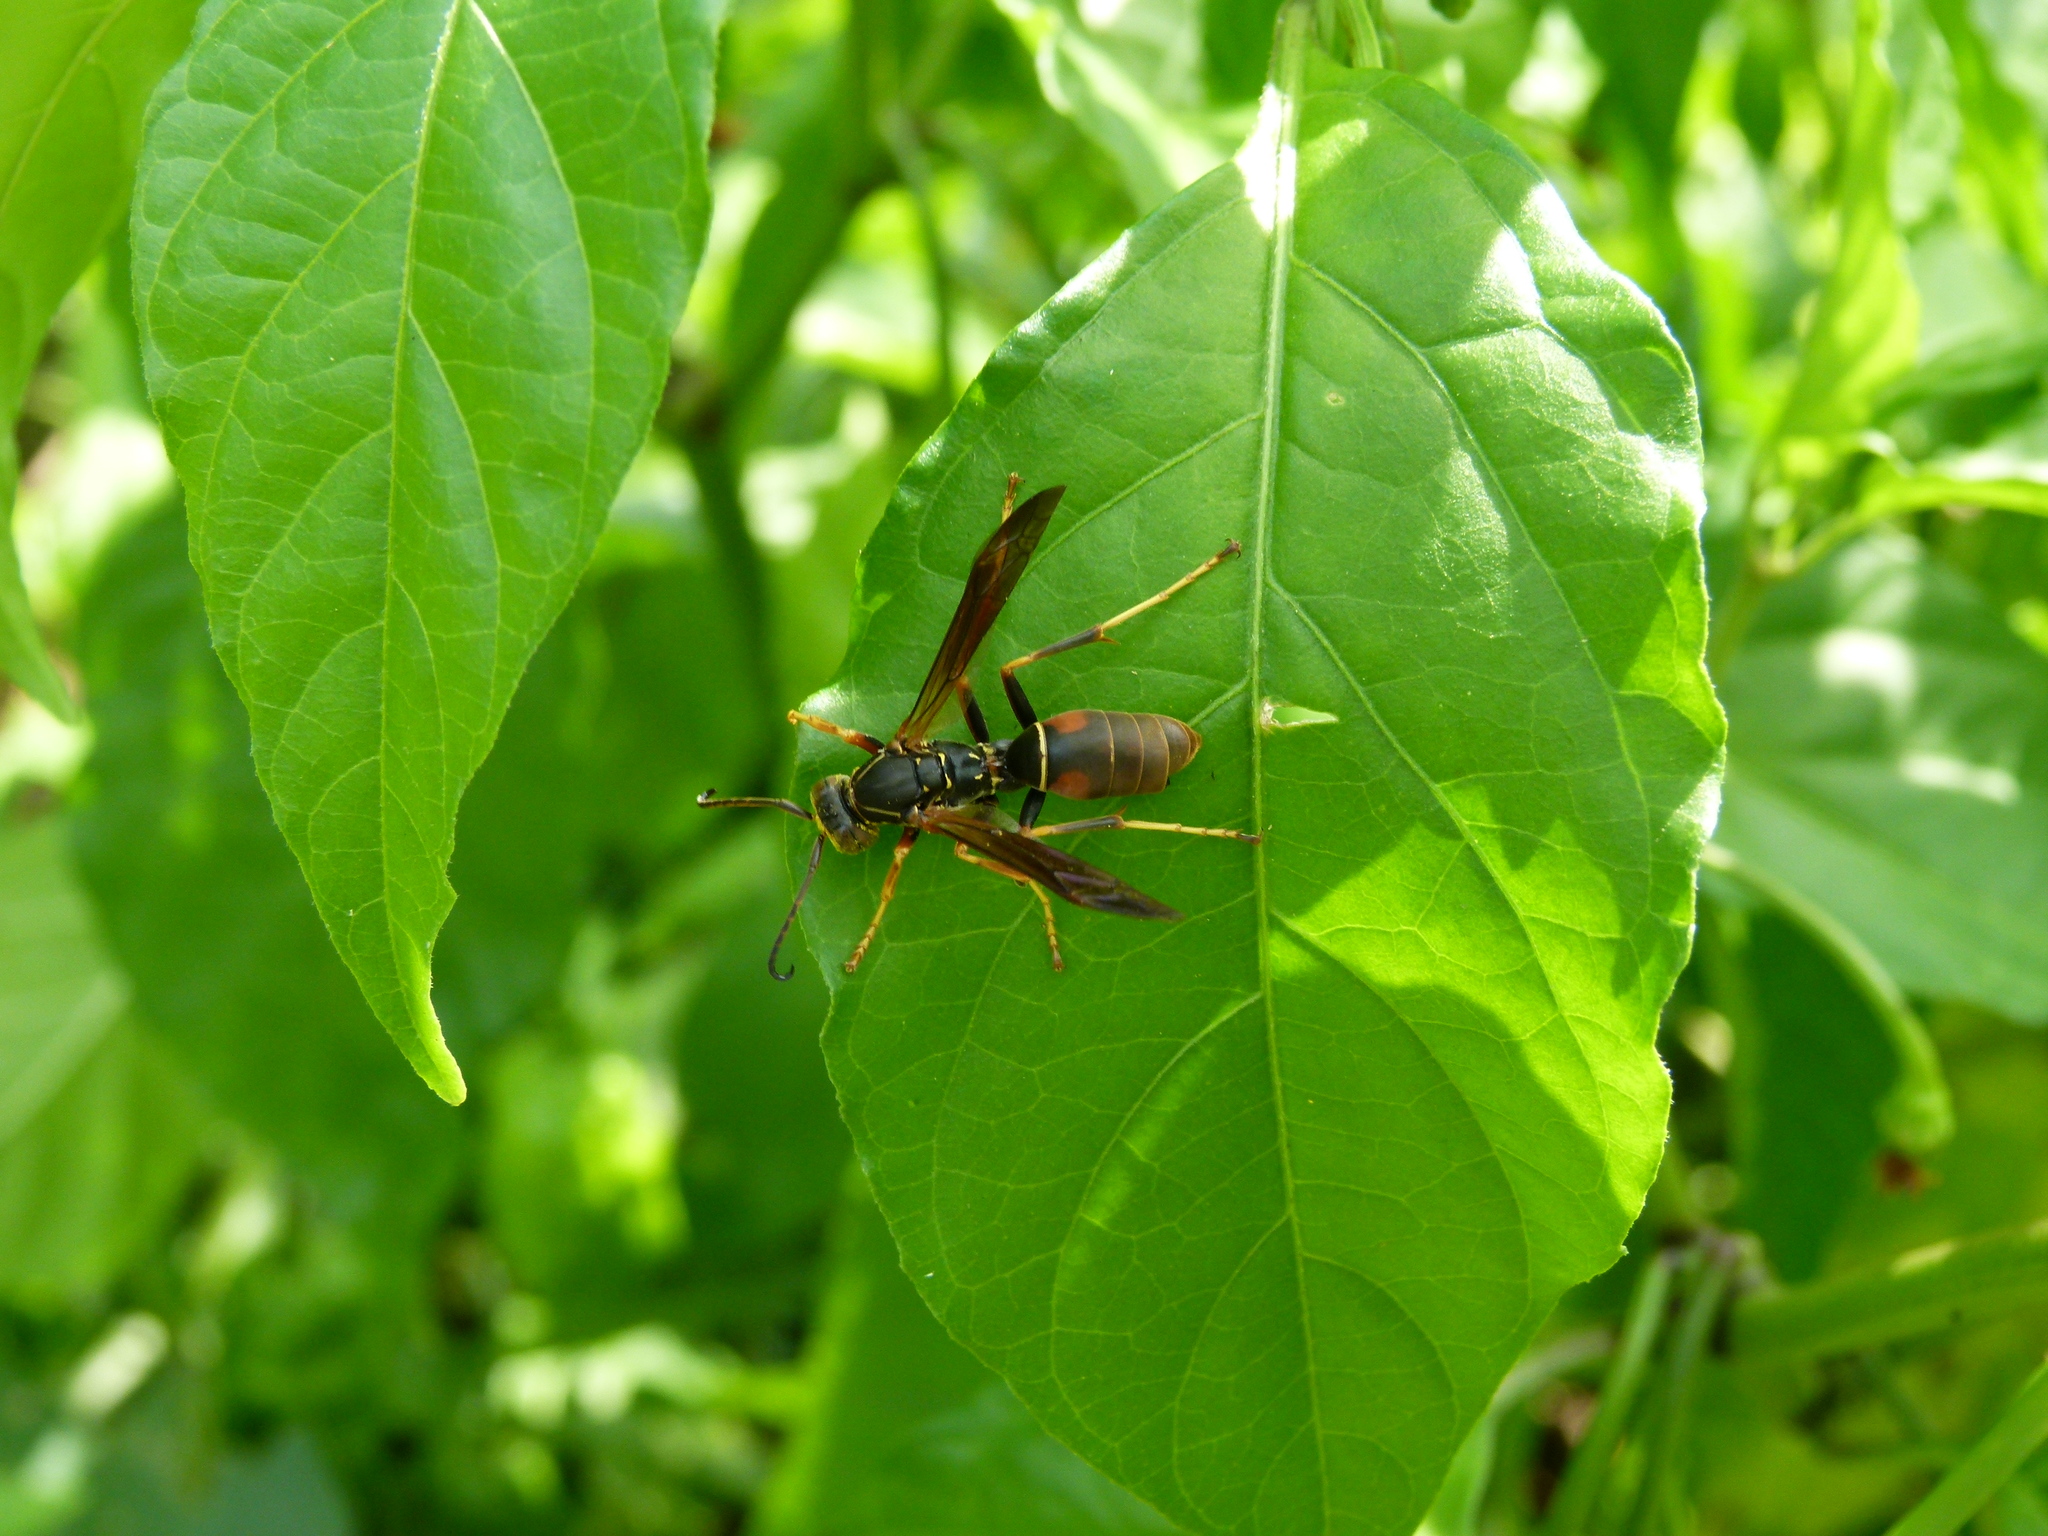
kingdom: Animalia
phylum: Arthropoda
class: Insecta
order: Hymenoptera
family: Eumenidae
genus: Polistes
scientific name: Polistes fuscatus
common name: Dark paper wasp
